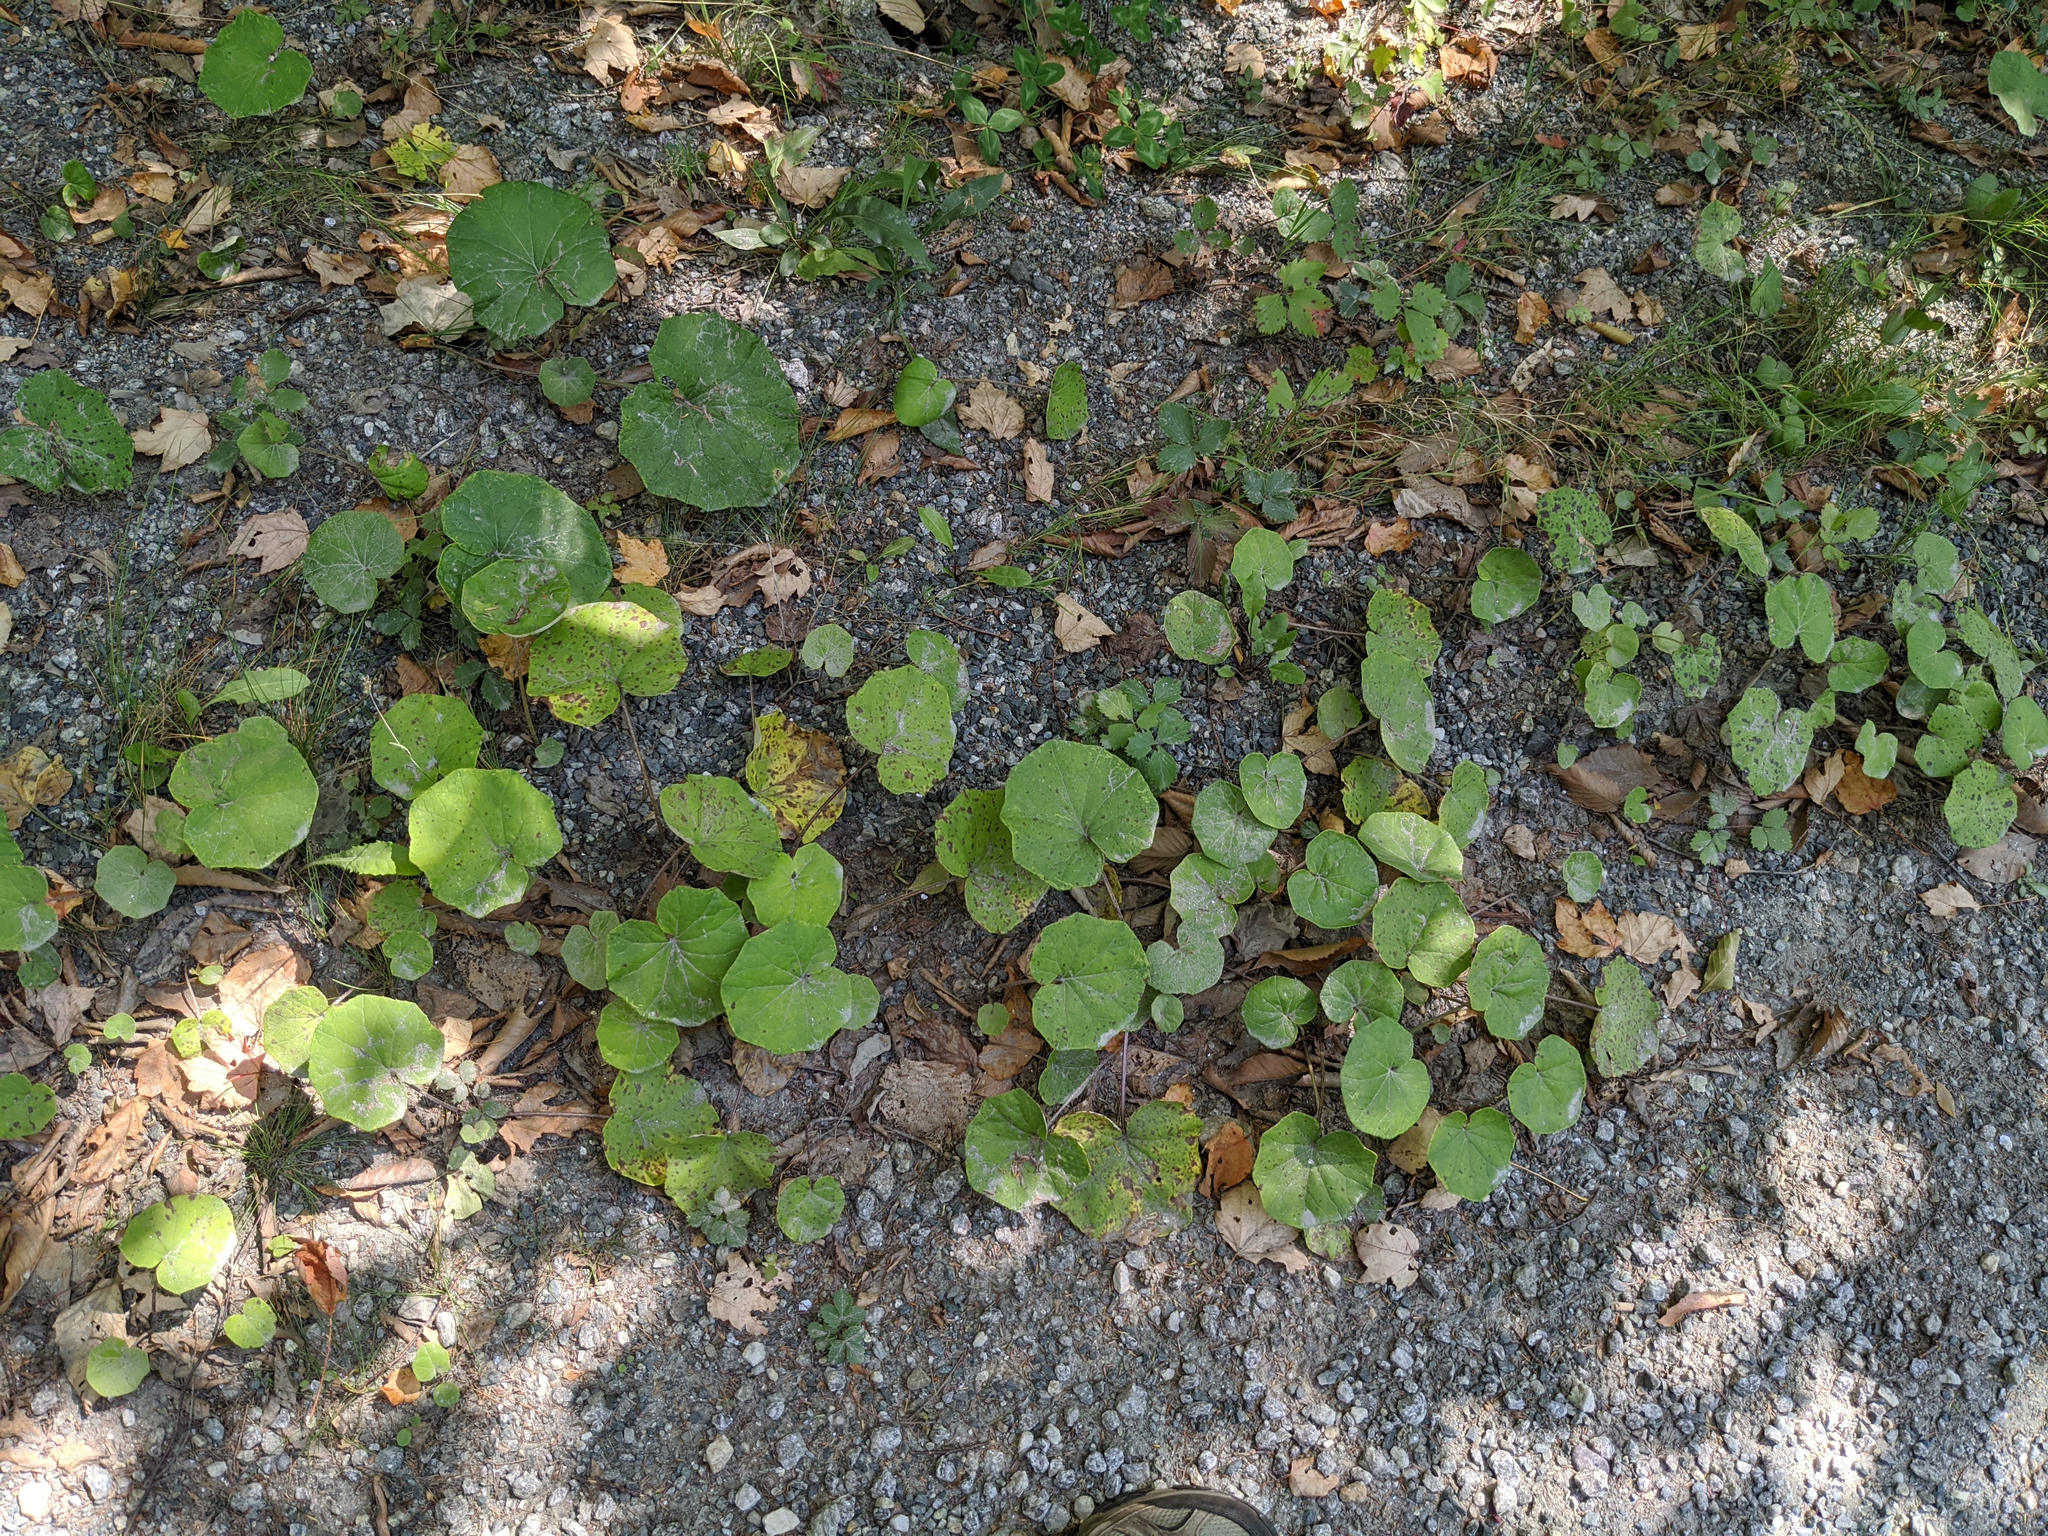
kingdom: Plantae
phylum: Tracheophyta
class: Magnoliopsida
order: Asterales
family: Asteraceae
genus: Tussilago
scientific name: Tussilago farfara
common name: Coltsfoot
